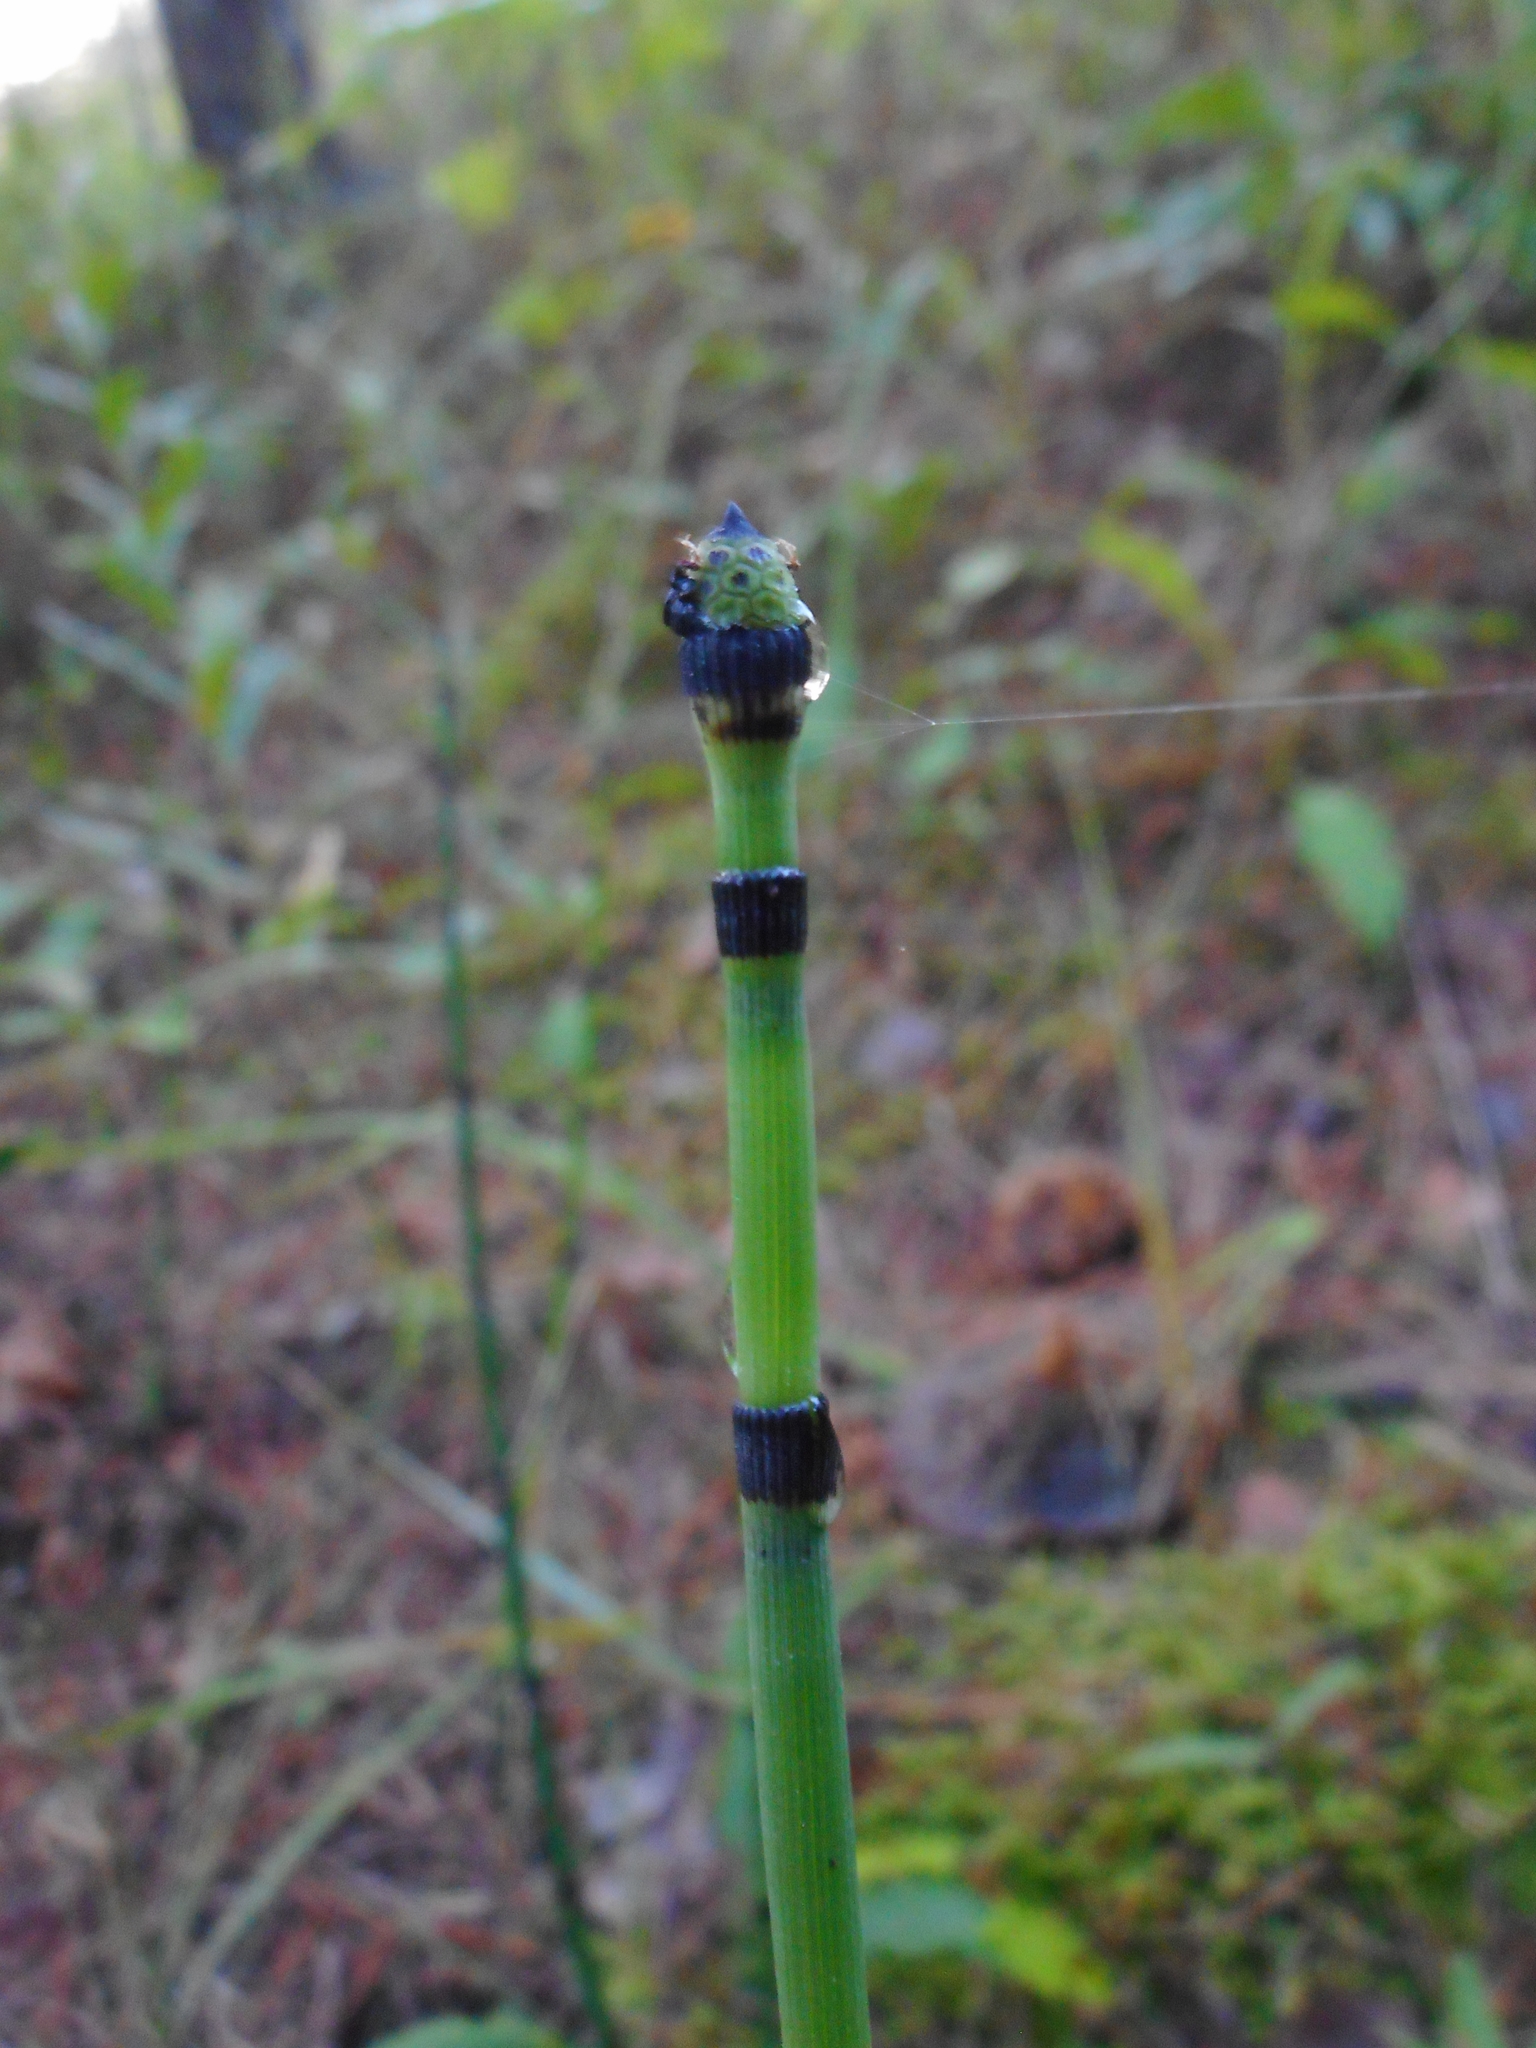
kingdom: Plantae
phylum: Tracheophyta
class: Polypodiopsida
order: Equisetales
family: Equisetaceae
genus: Equisetum
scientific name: Equisetum hyemale
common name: Rough horsetail
